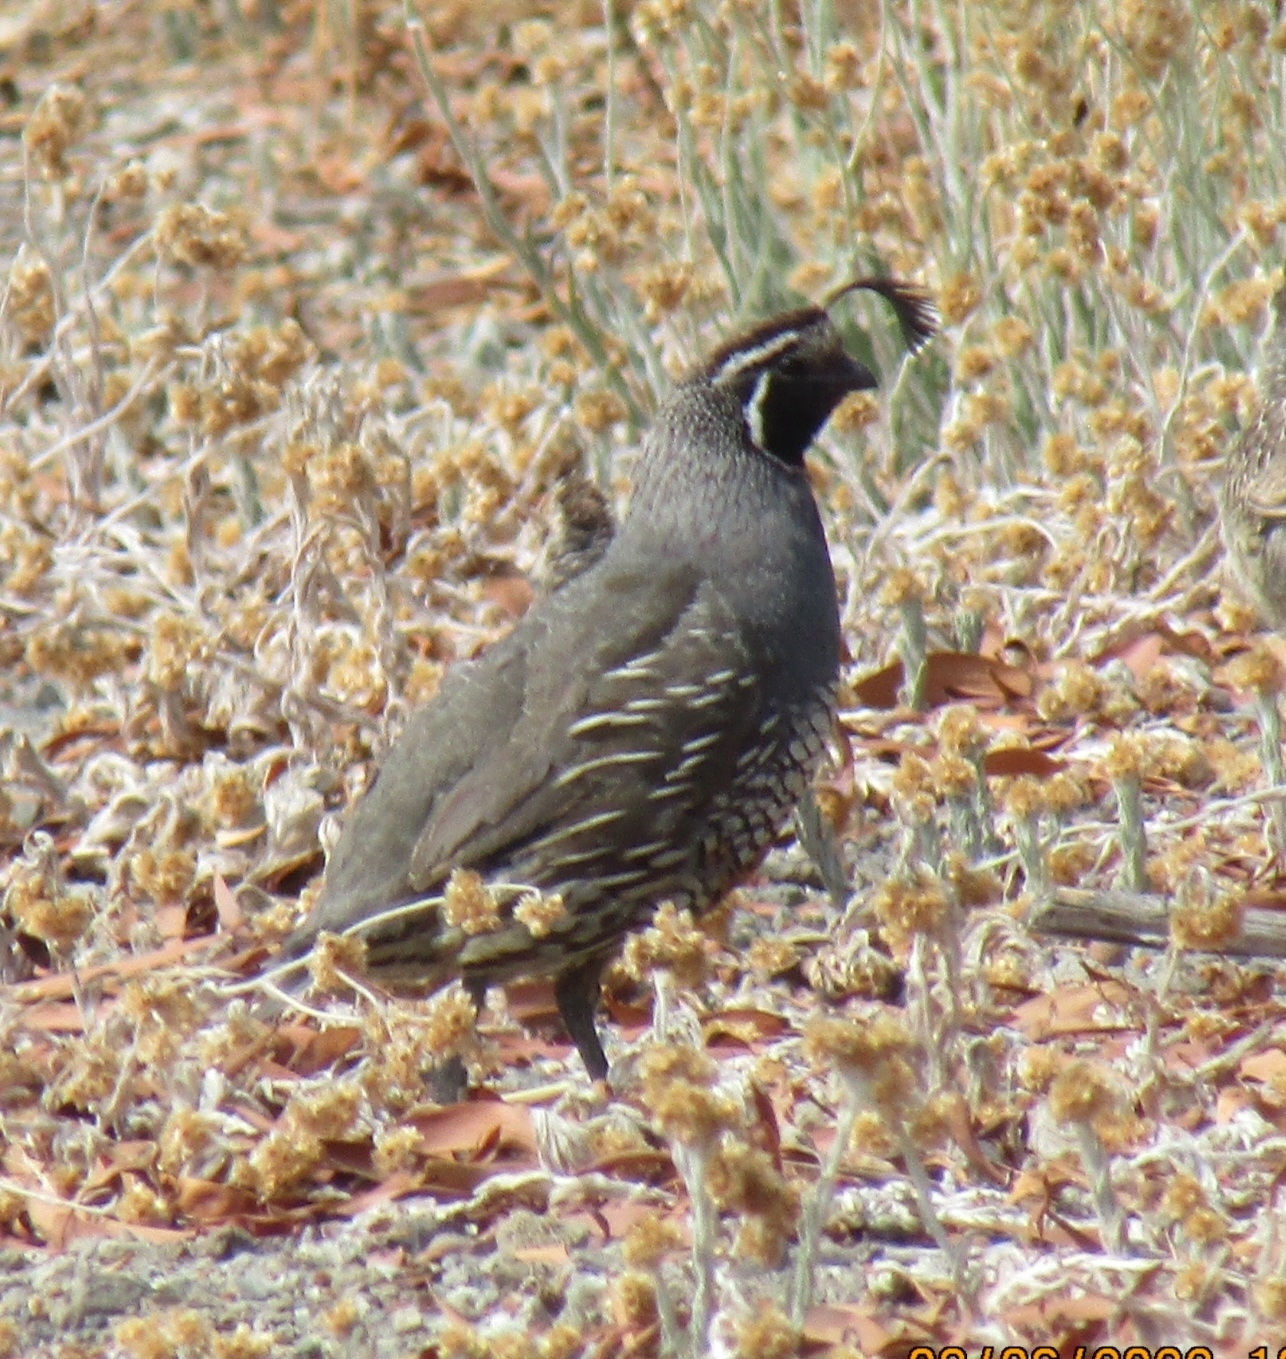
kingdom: Animalia
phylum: Chordata
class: Aves
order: Galliformes
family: Odontophoridae
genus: Callipepla
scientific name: Callipepla californica
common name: California quail
